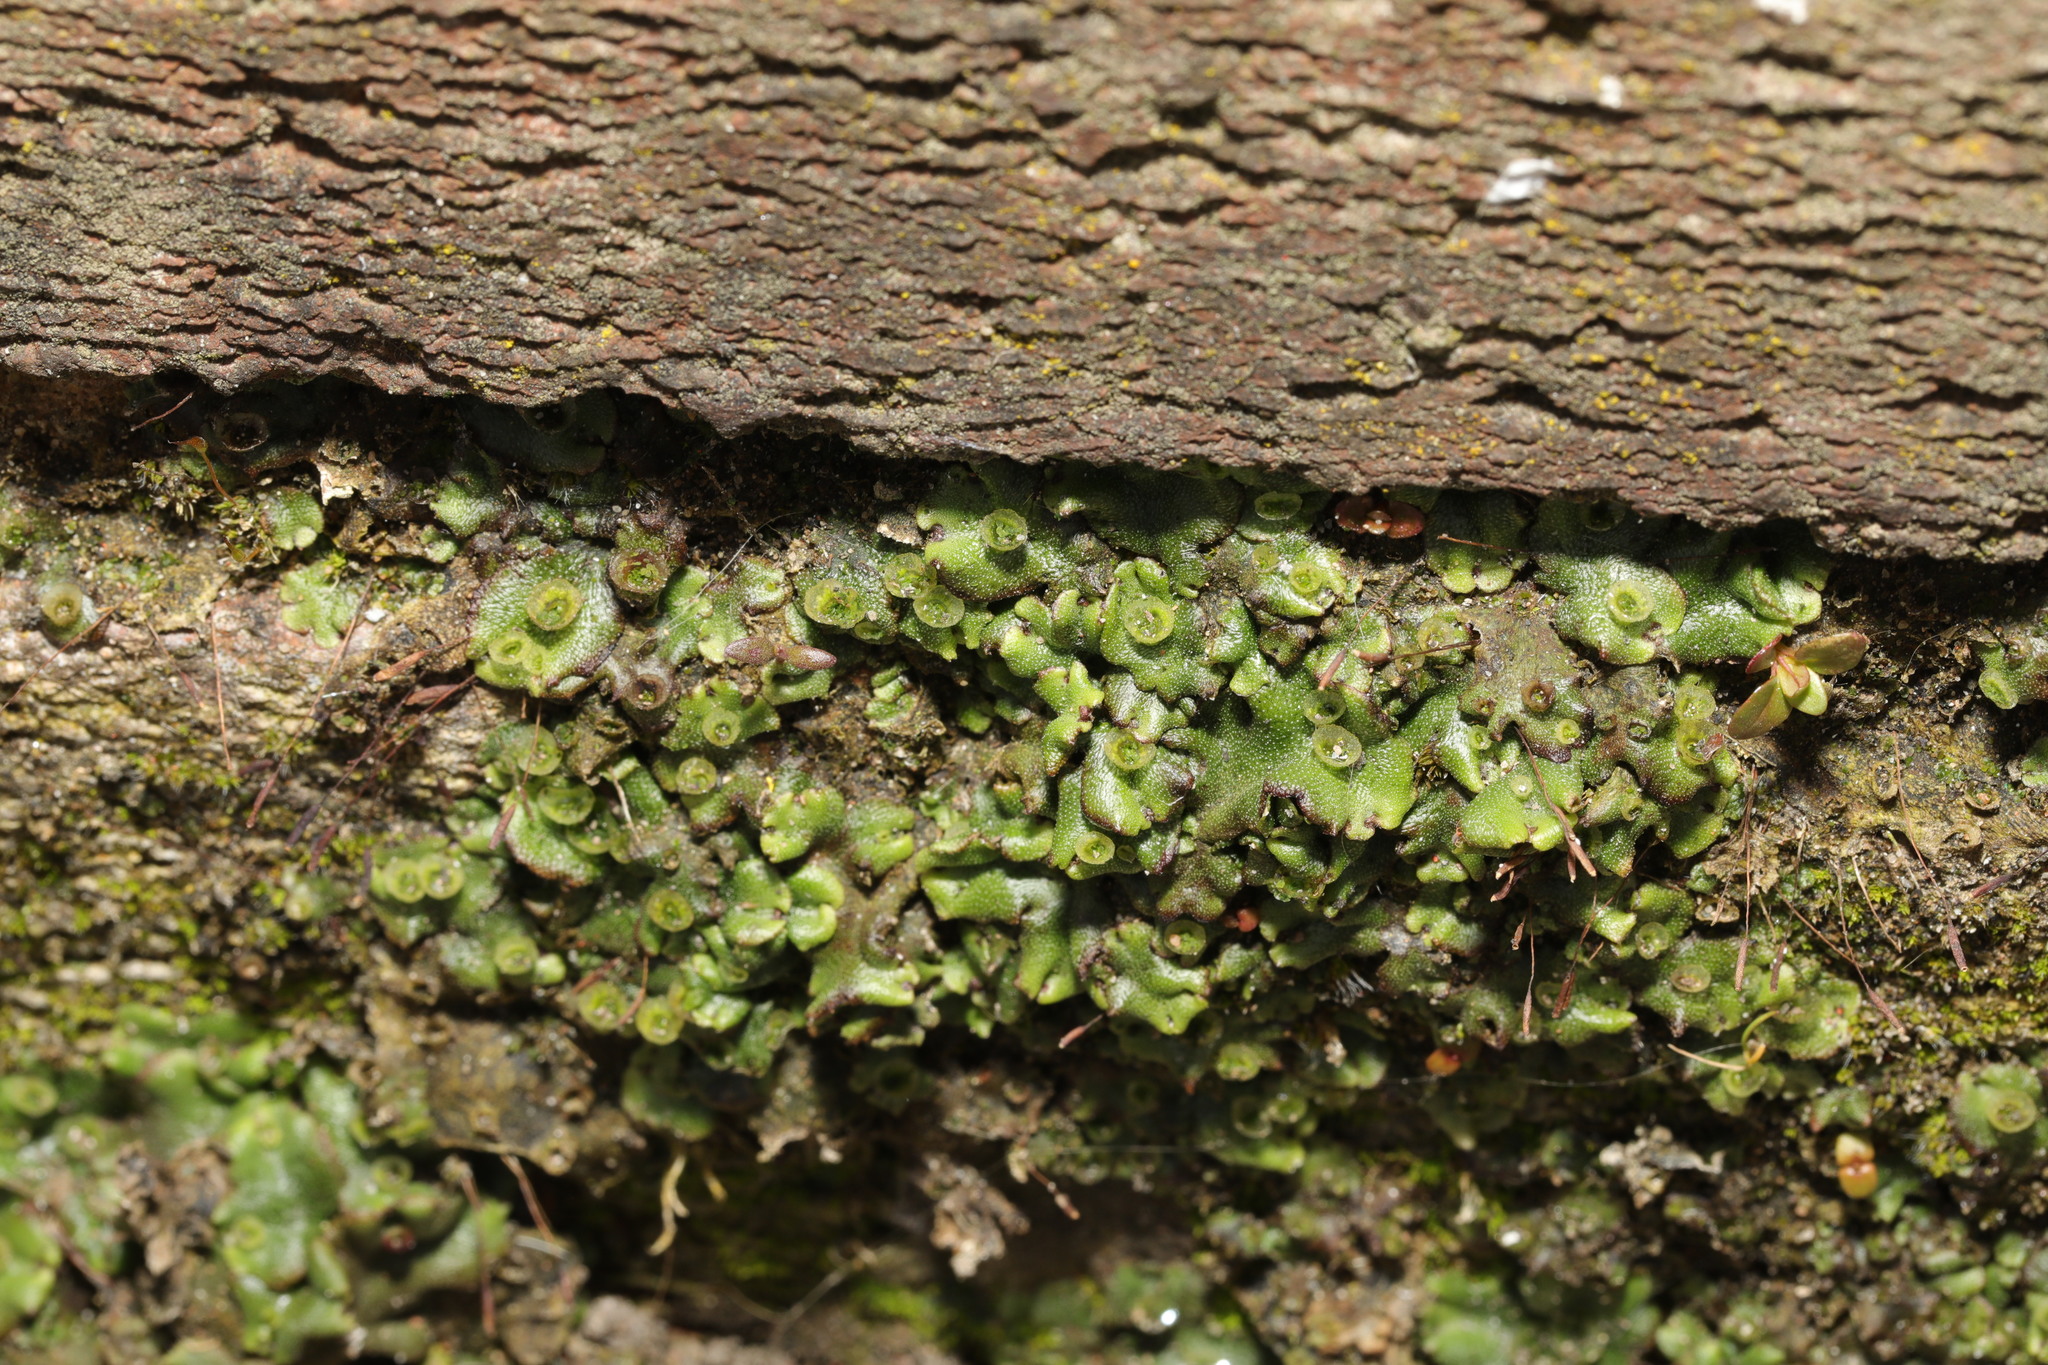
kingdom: Plantae
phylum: Marchantiophyta
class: Marchantiopsida
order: Marchantiales
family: Marchantiaceae
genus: Marchantia
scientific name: Marchantia polymorpha
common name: Common liverwort
